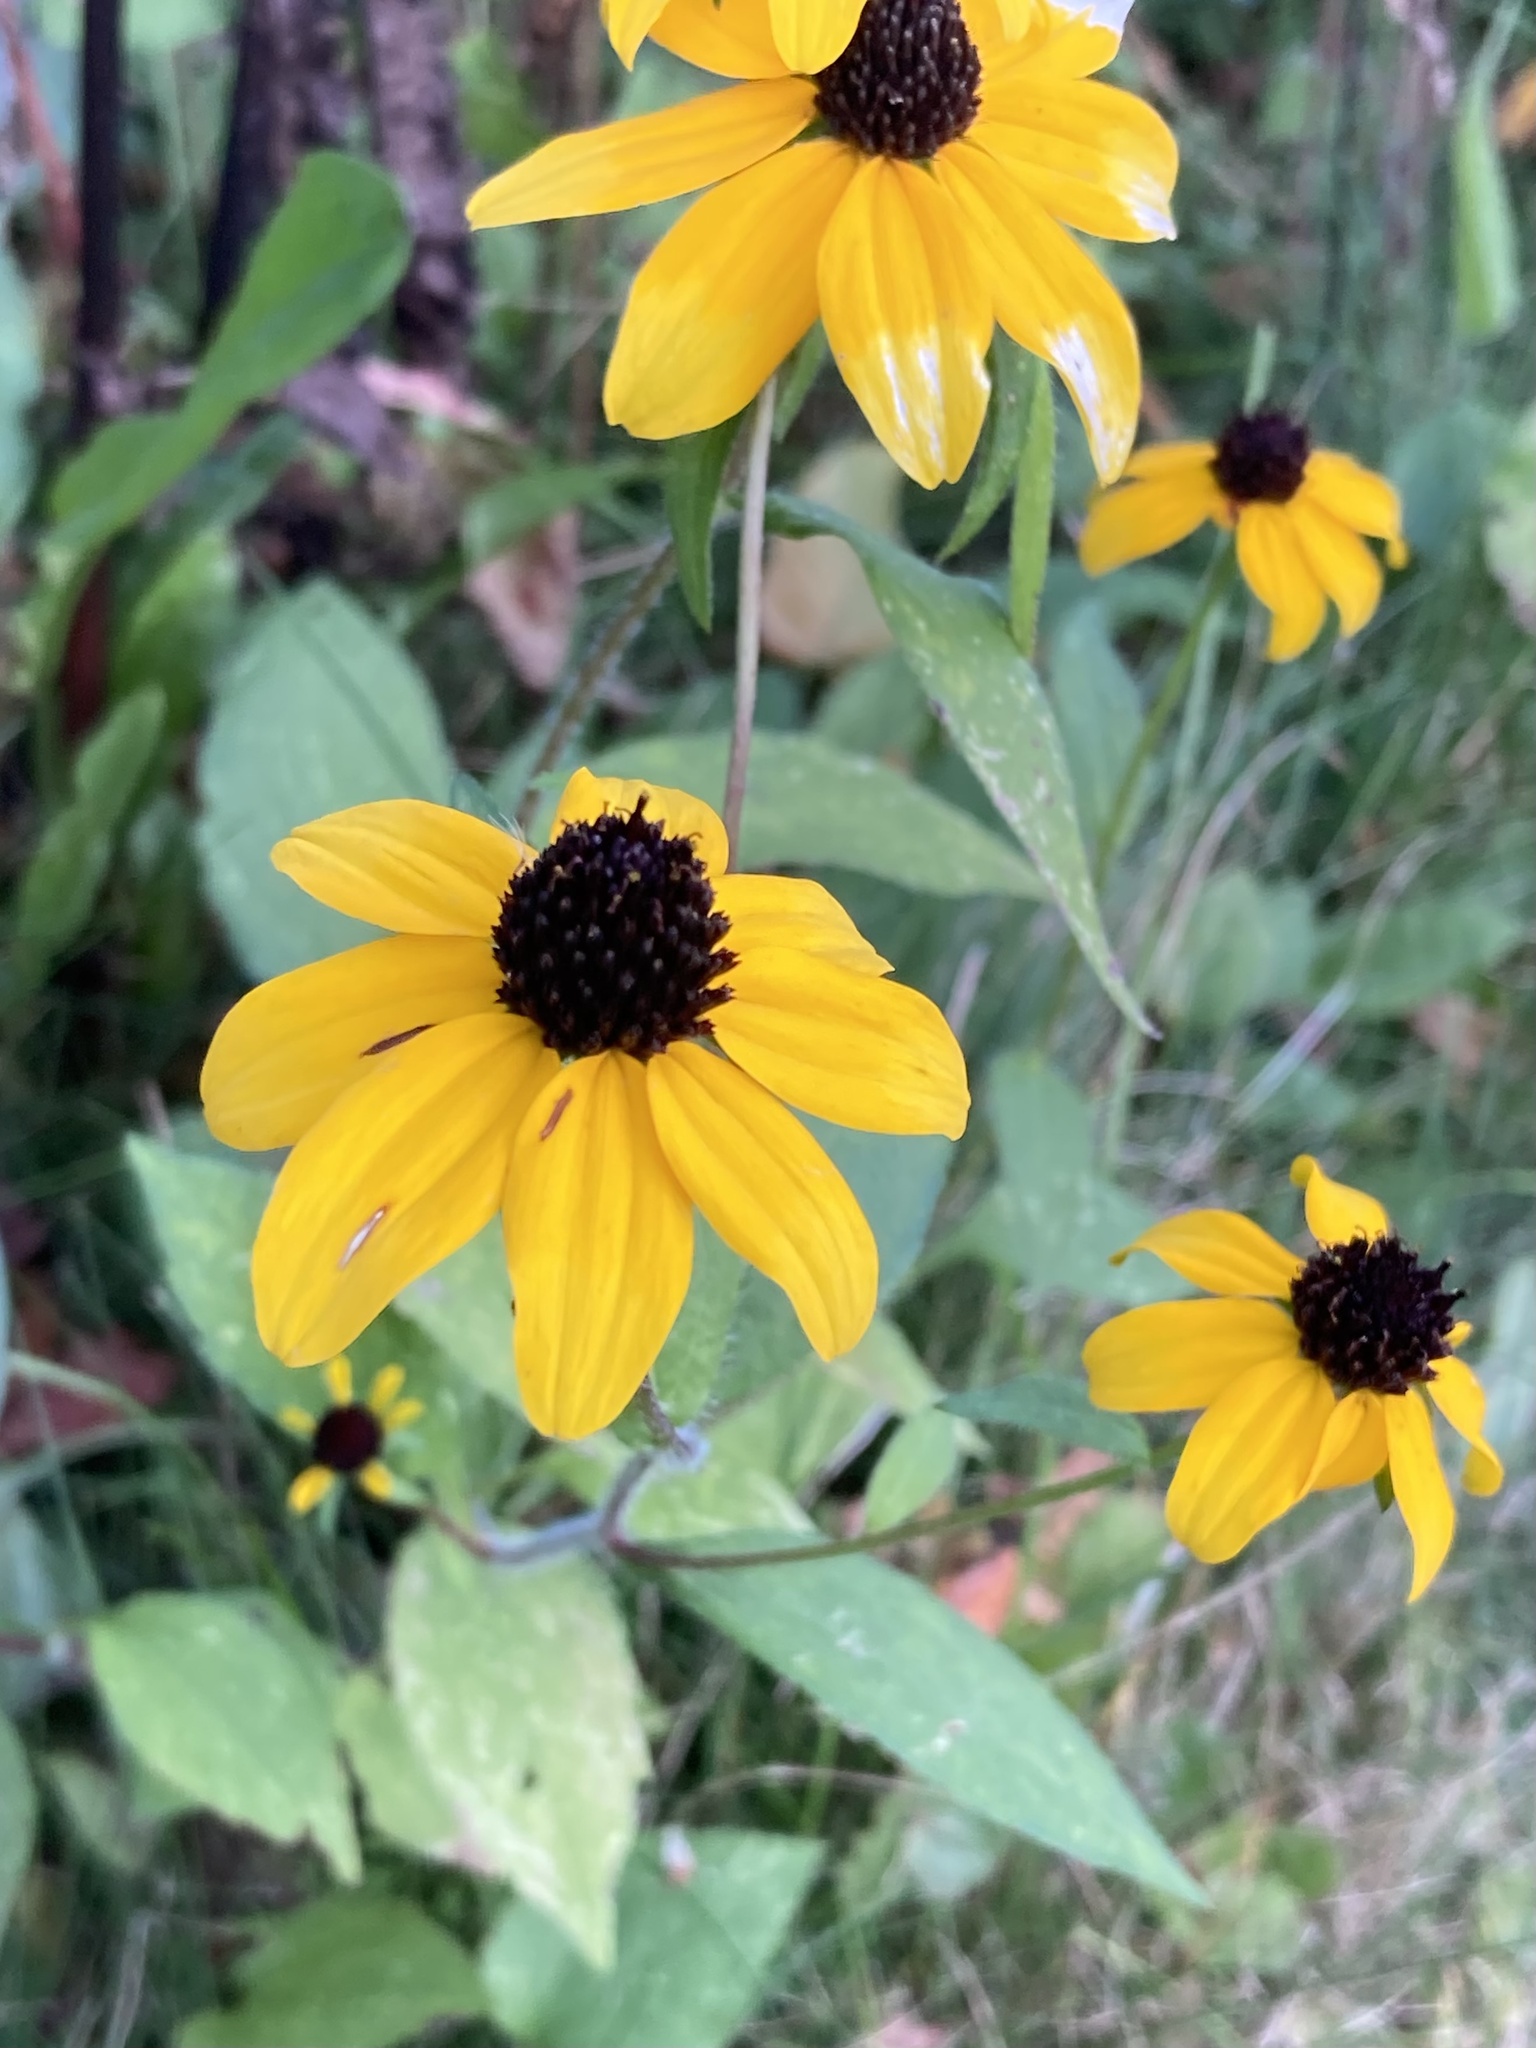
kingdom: Plantae
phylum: Tracheophyta
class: Magnoliopsida
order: Asterales
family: Asteraceae
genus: Rudbeckia
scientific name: Rudbeckia triloba
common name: Thin-leaved coneflower
